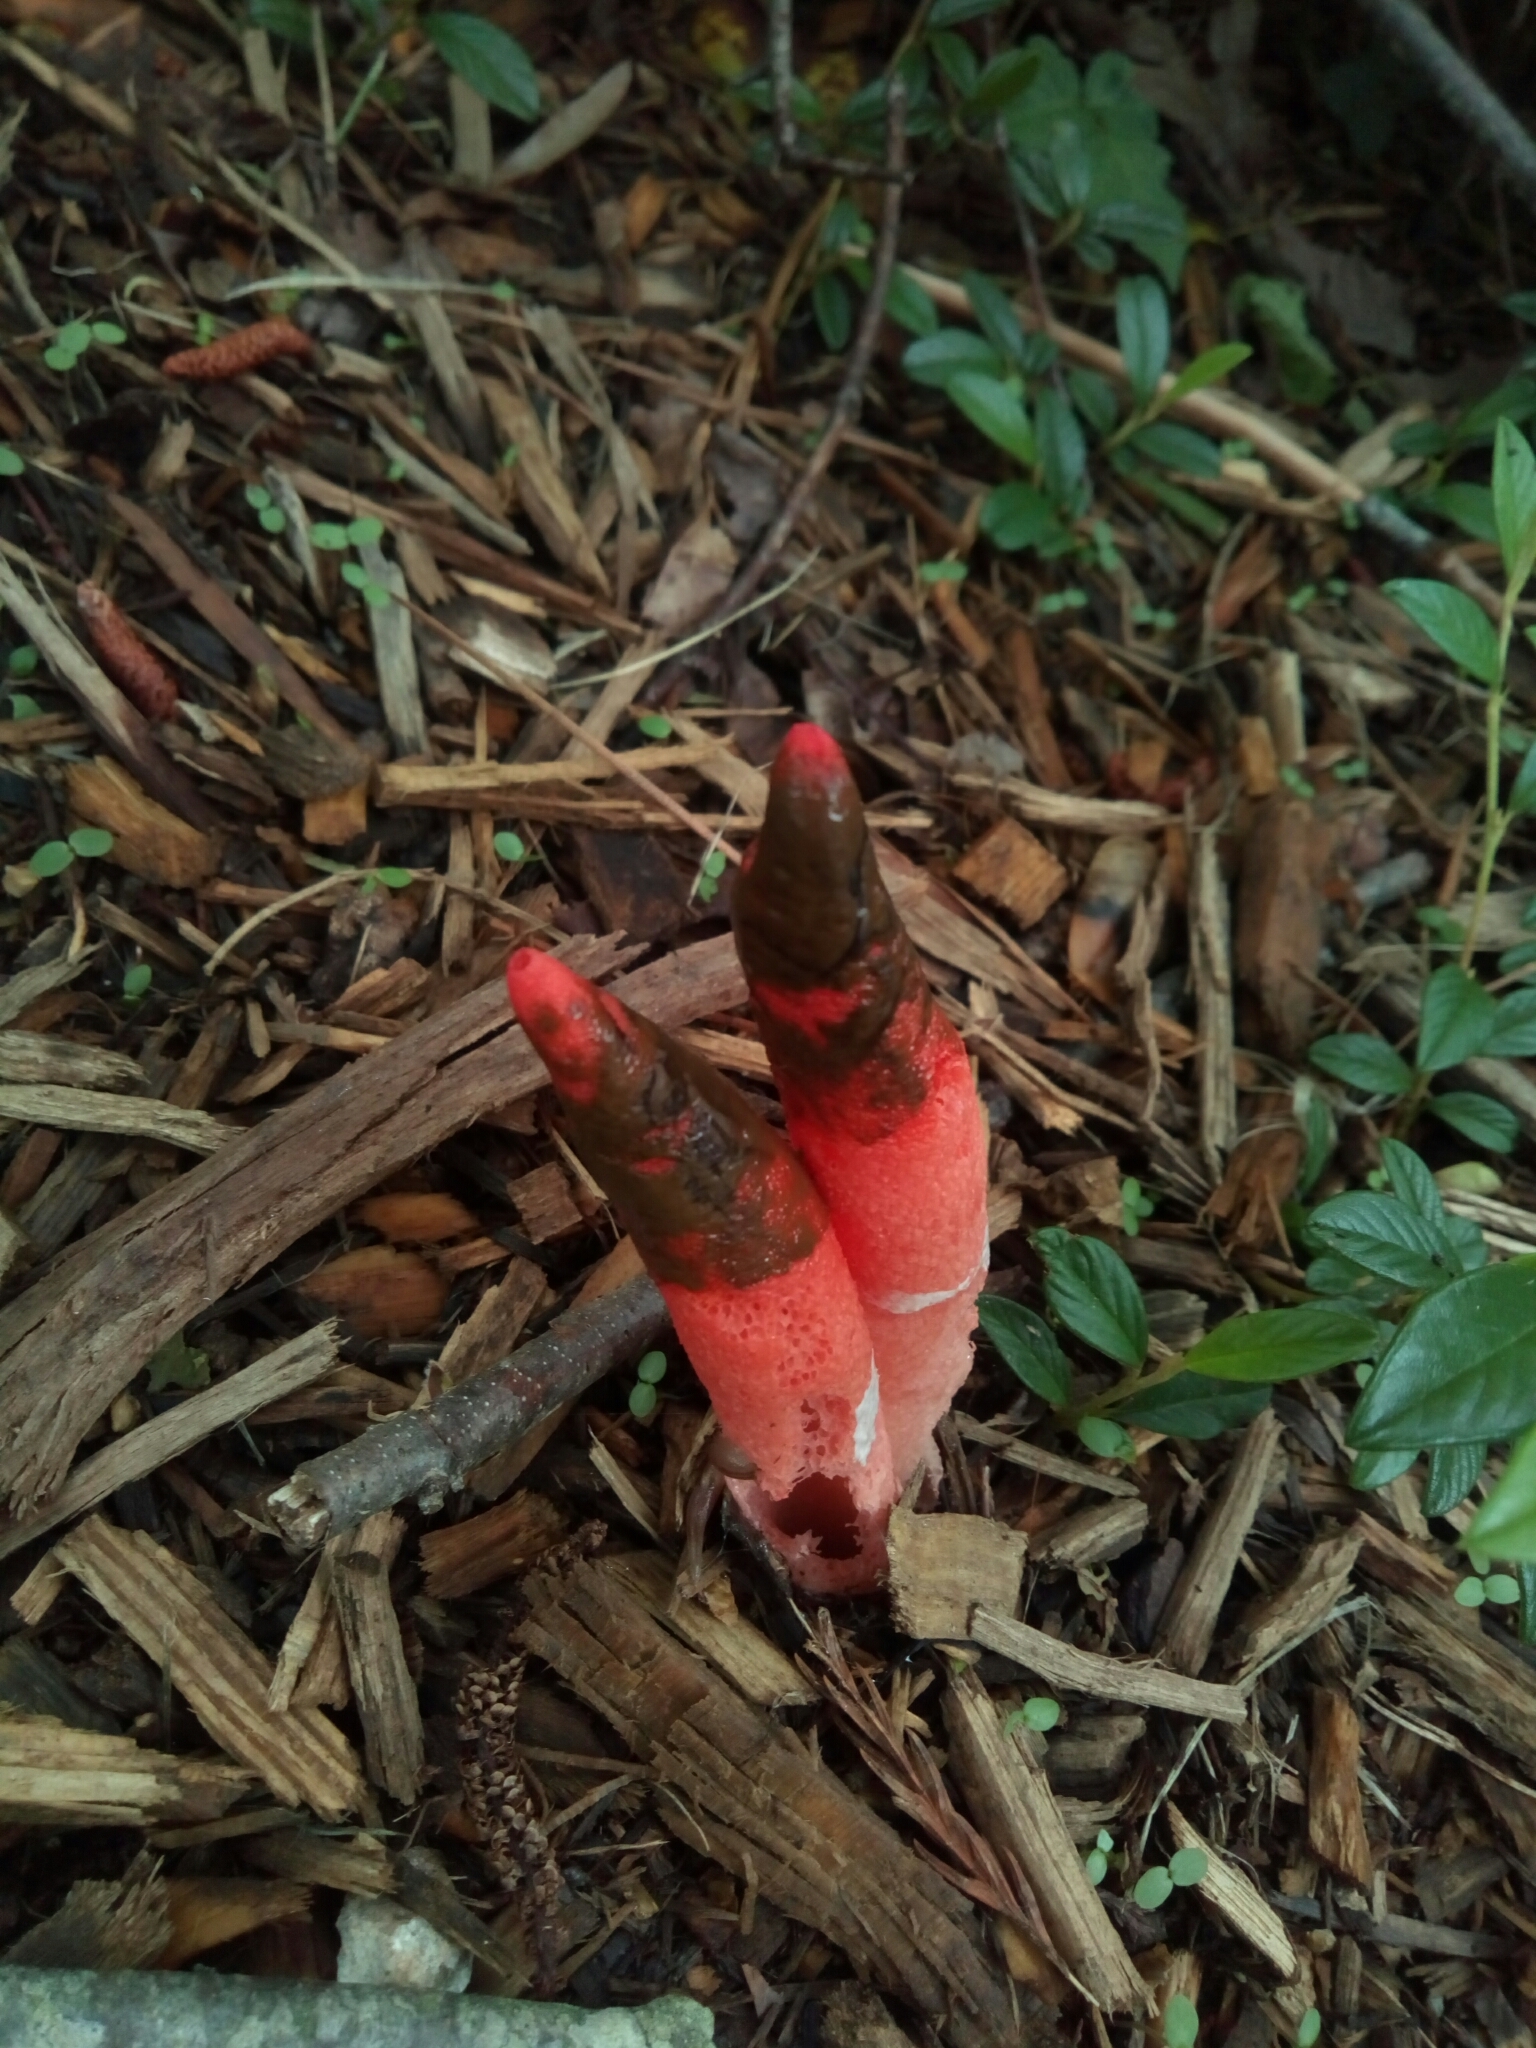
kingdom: Fungi
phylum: Basidiomycota
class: Agaricomycetes
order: Phallales
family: Phallaceae
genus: Mutinus
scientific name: Mutinus elegans
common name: Devil's dipstick
